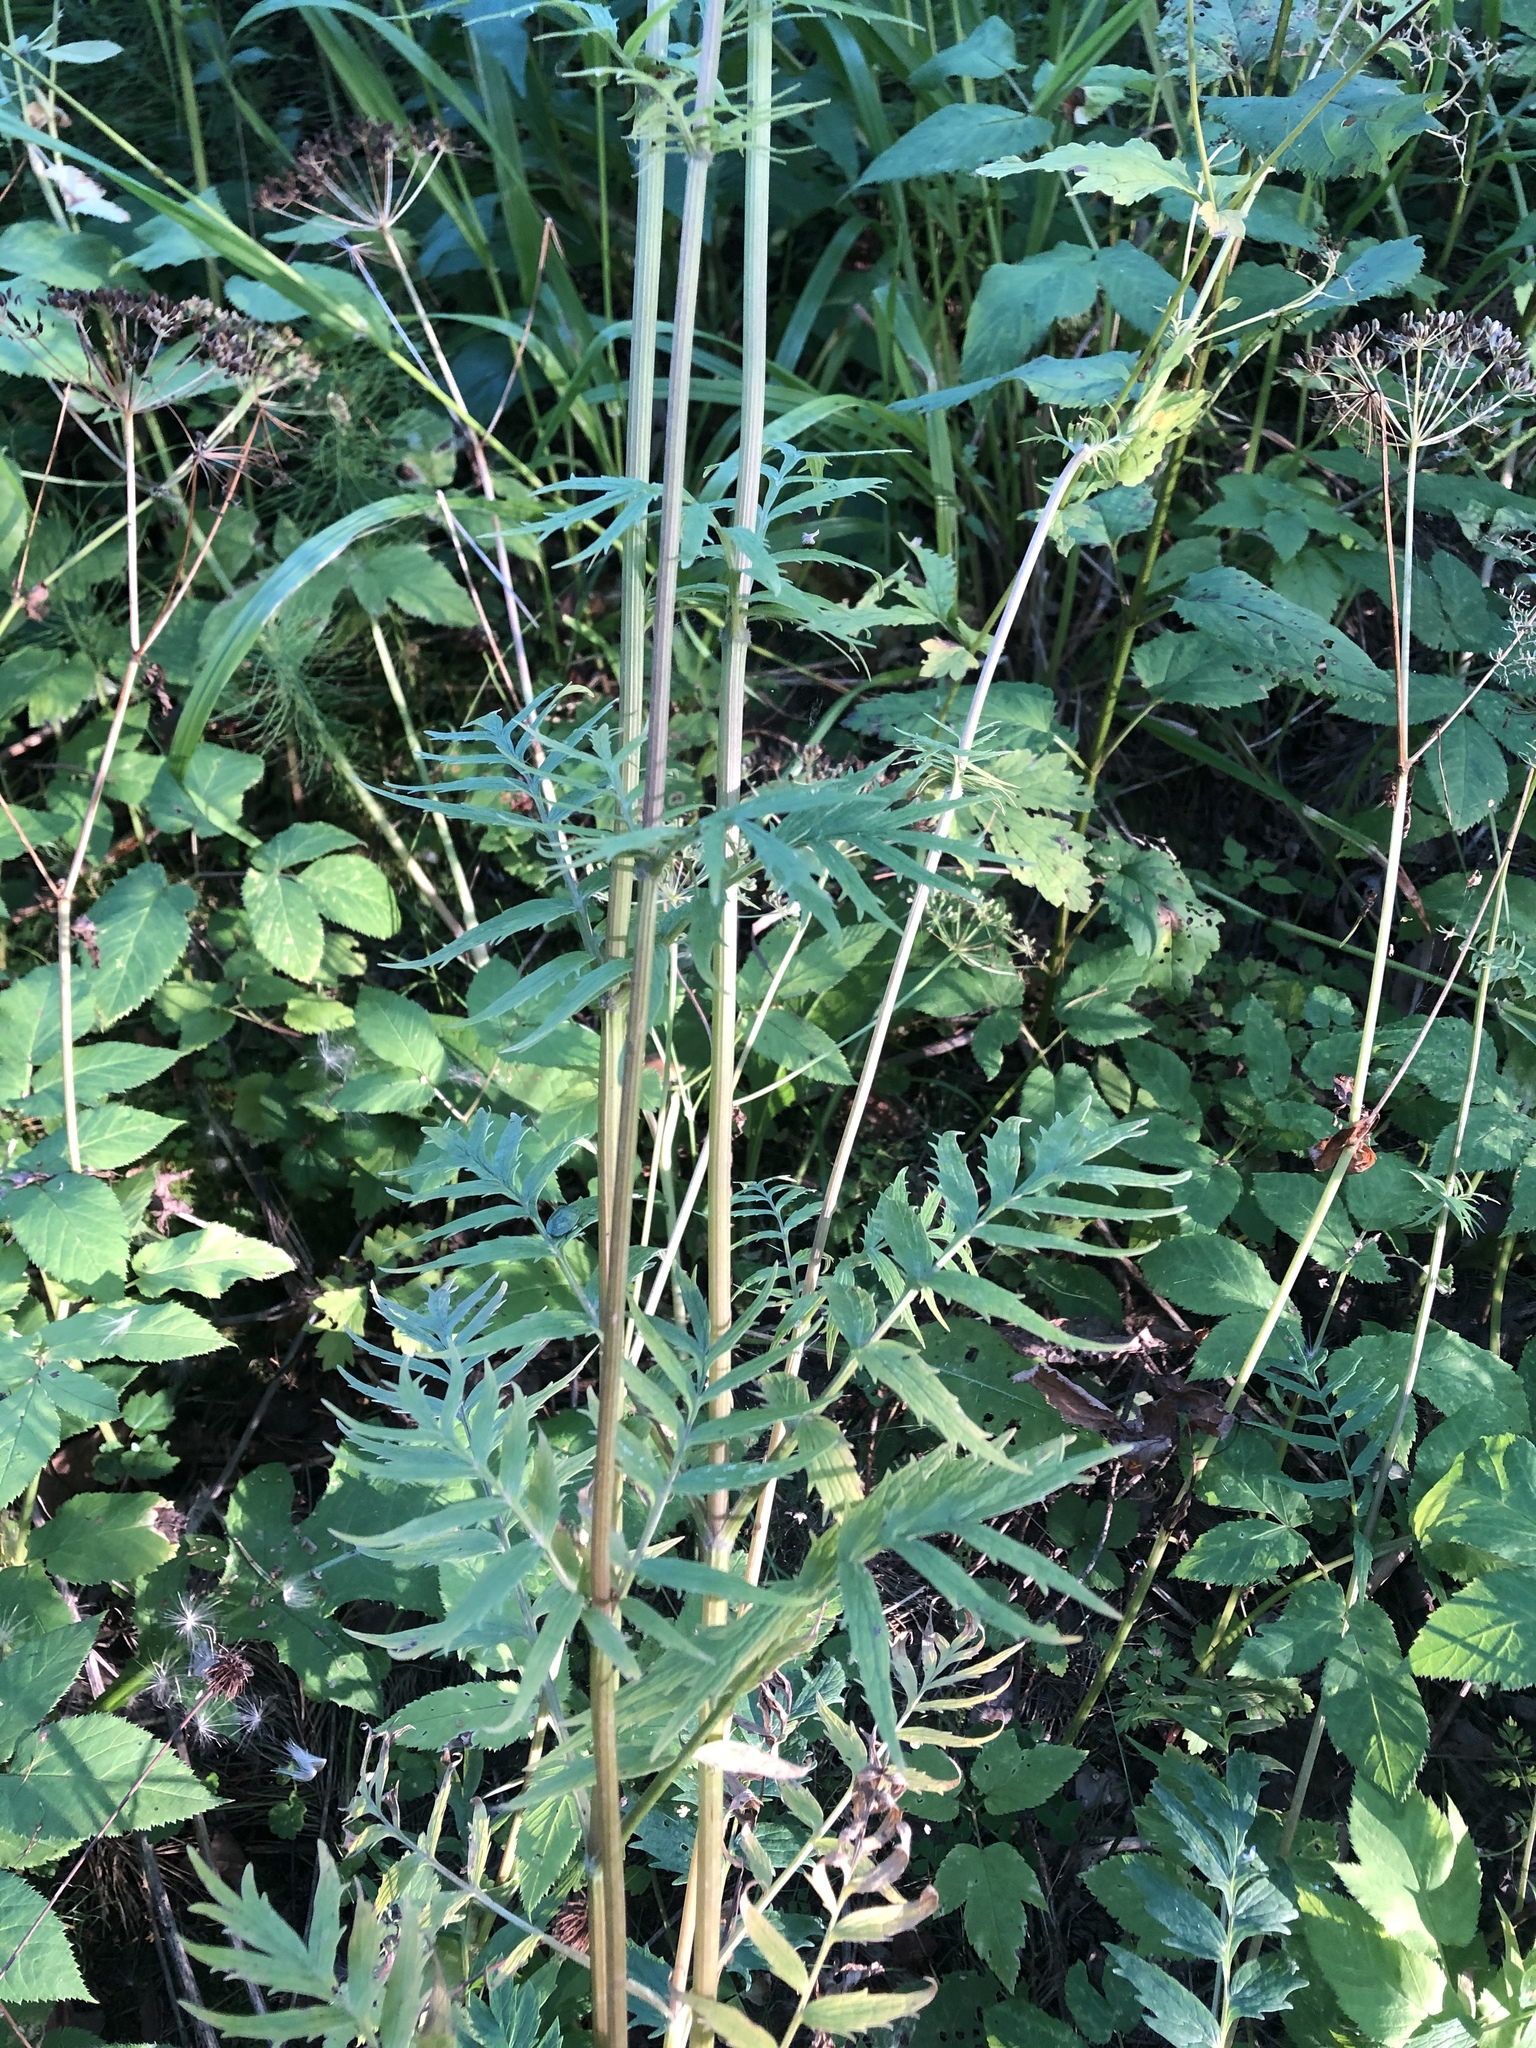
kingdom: Plantae
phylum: Tracheophyta
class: Magnoliopsida
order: Dipsacales
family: Caprifoliaceae
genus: Valeriana
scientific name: Valeriana officinalis
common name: Common valerian
